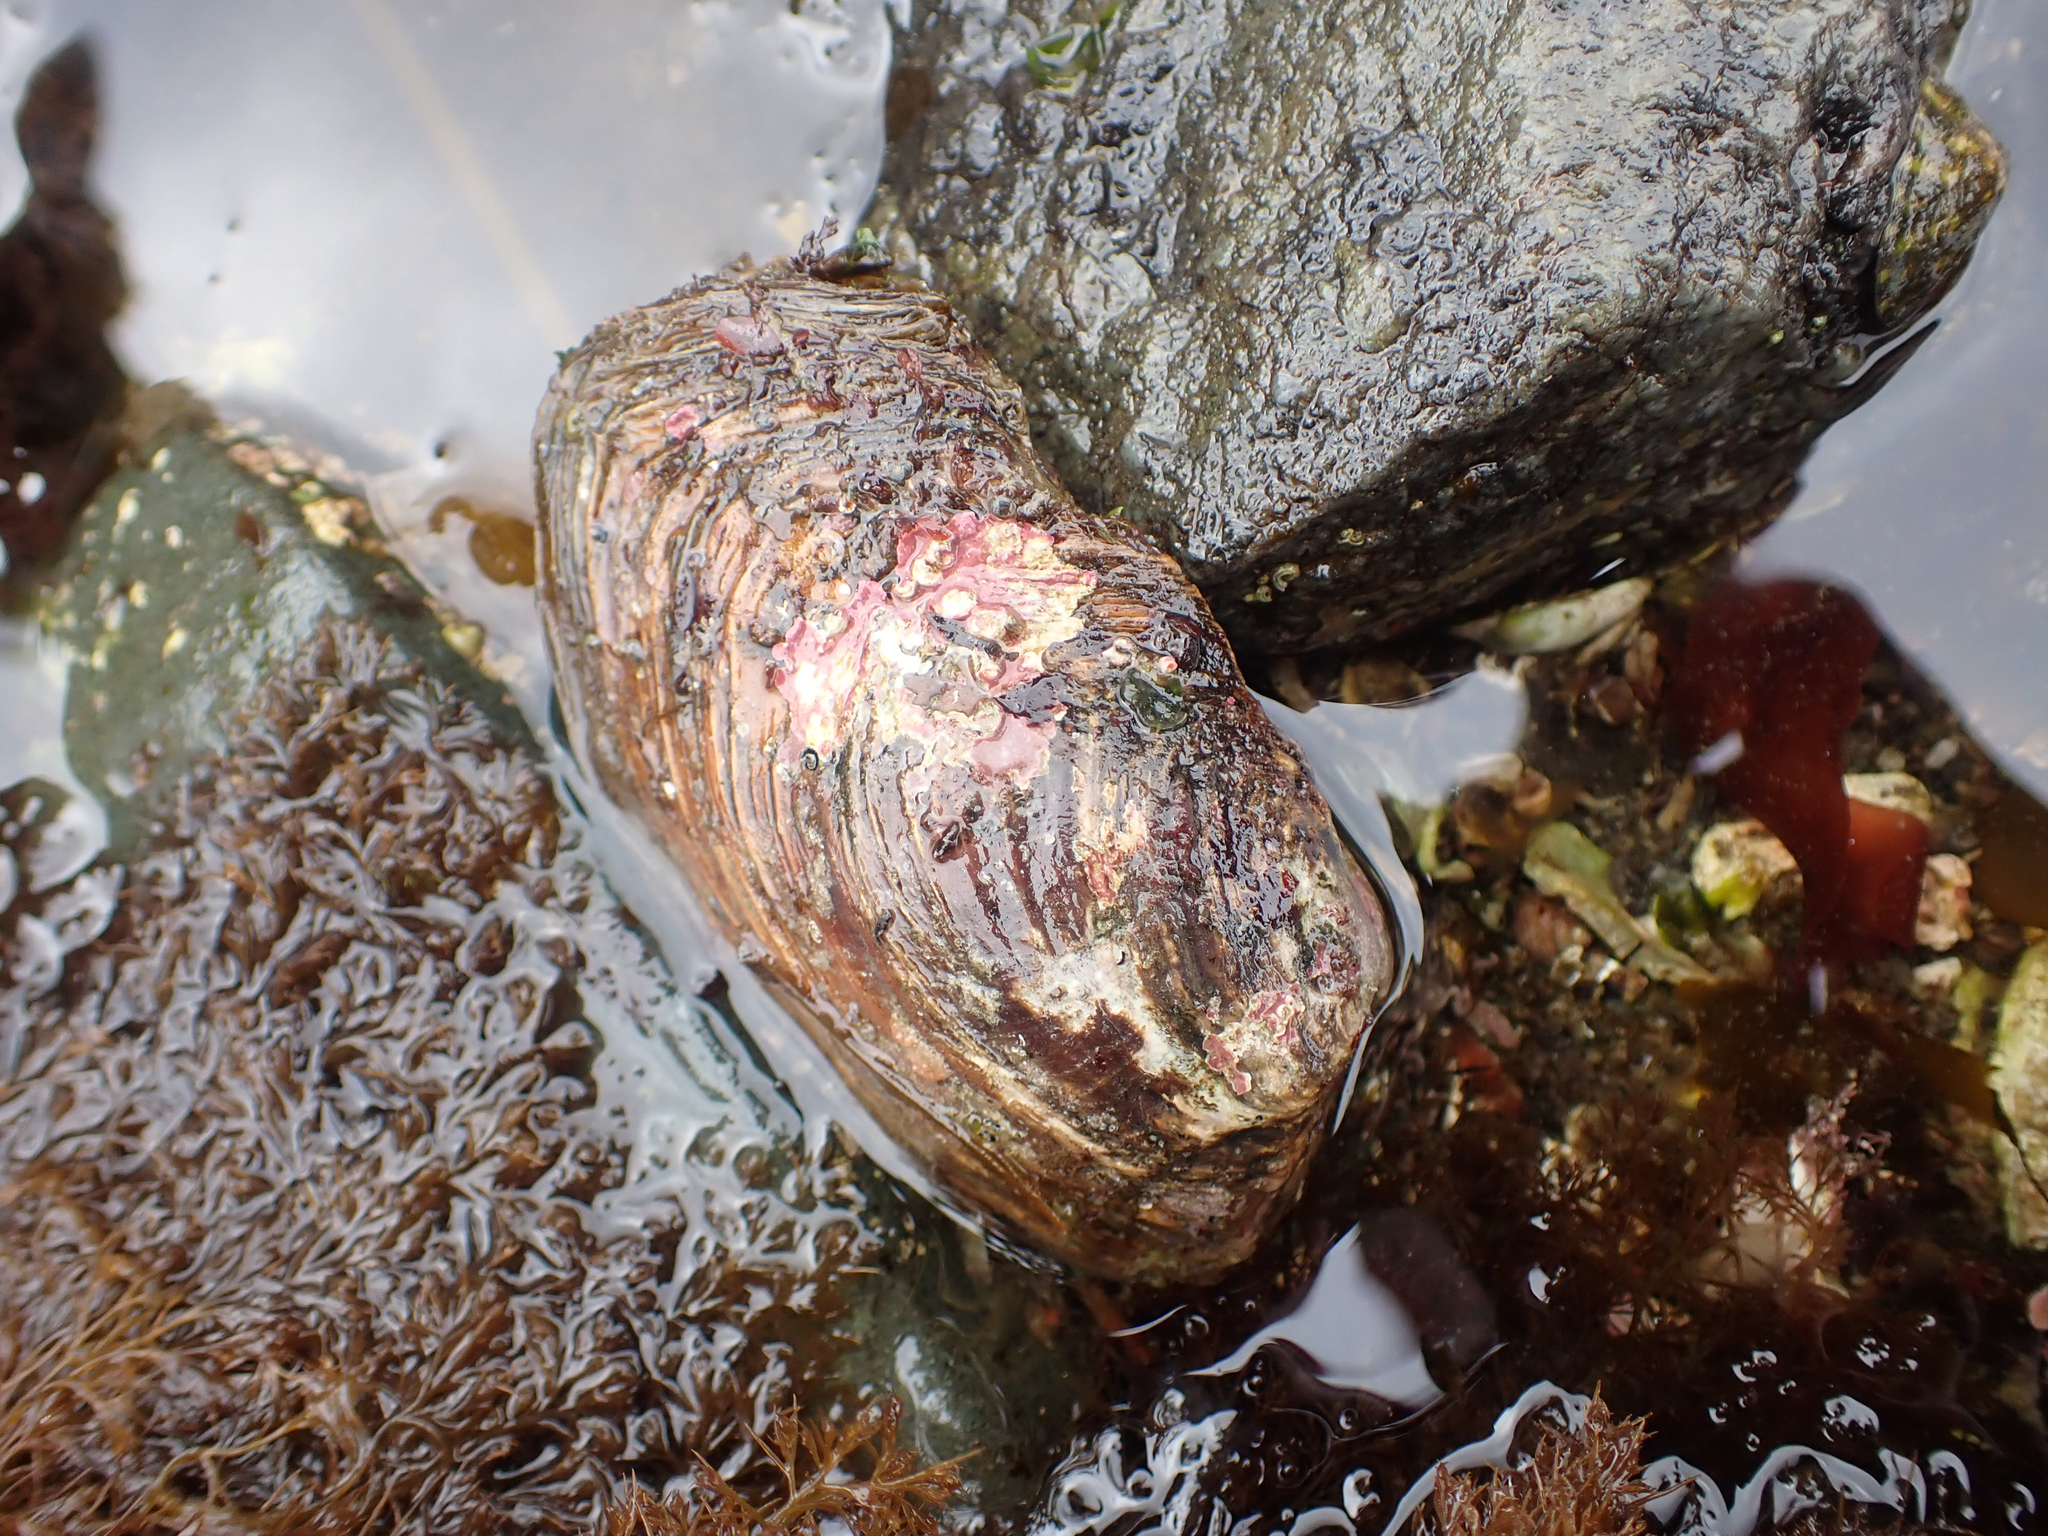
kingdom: Animalia
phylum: Mollusca
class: Bivalvia
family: Lyonsiidae
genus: Entodesma
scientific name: Entodesma navicula
